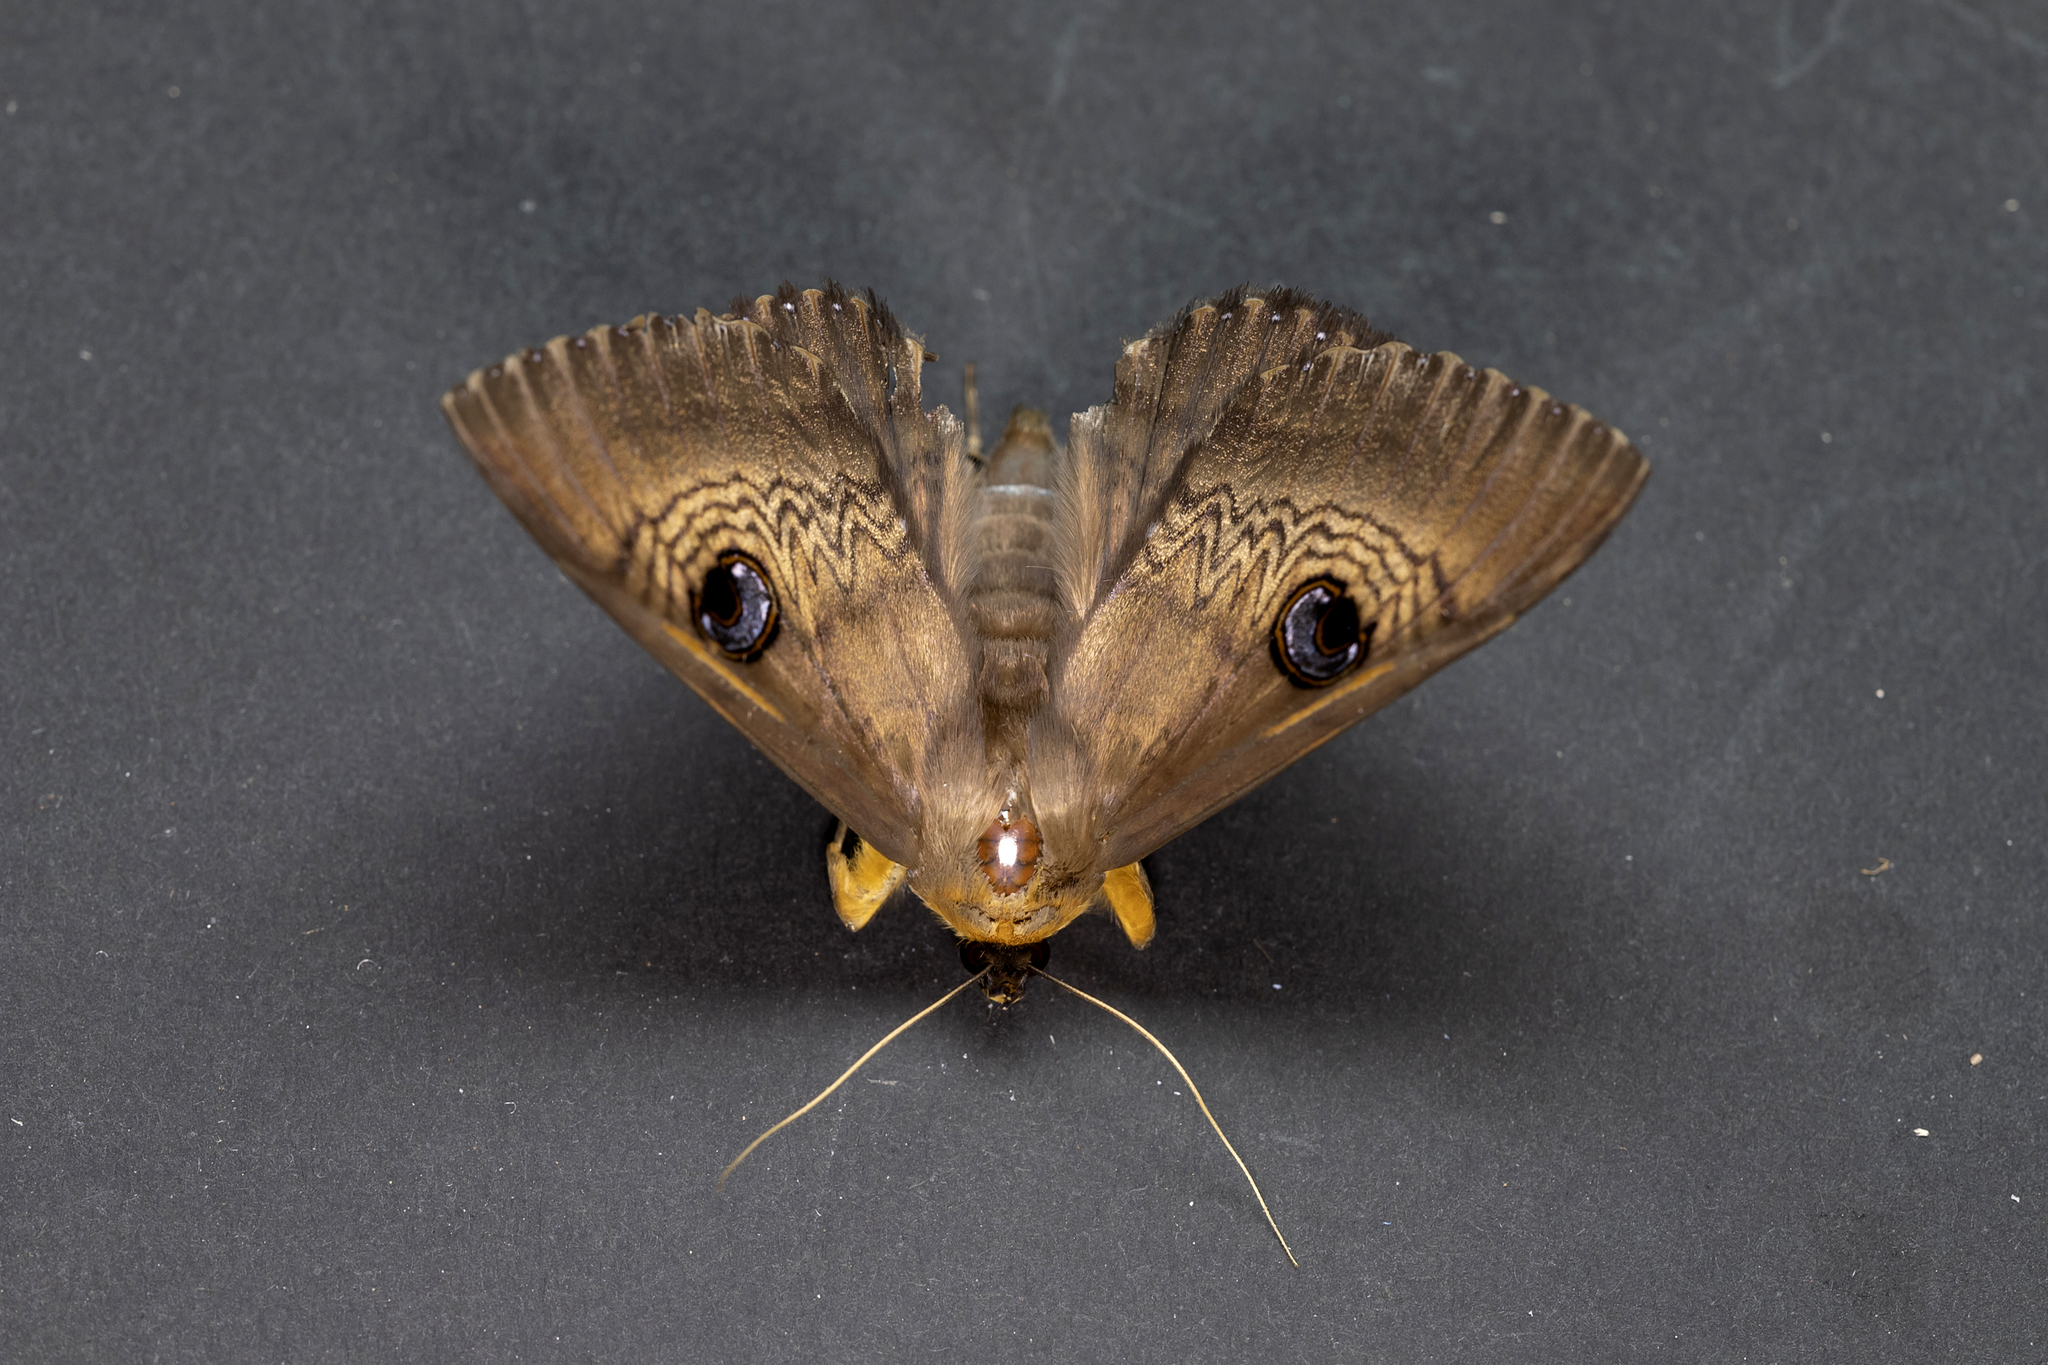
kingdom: Animalia
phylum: Arthropoda
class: Insecta
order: Lepidoptera
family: Erebidae
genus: Dasypodia
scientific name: Dasypodia selenophora
